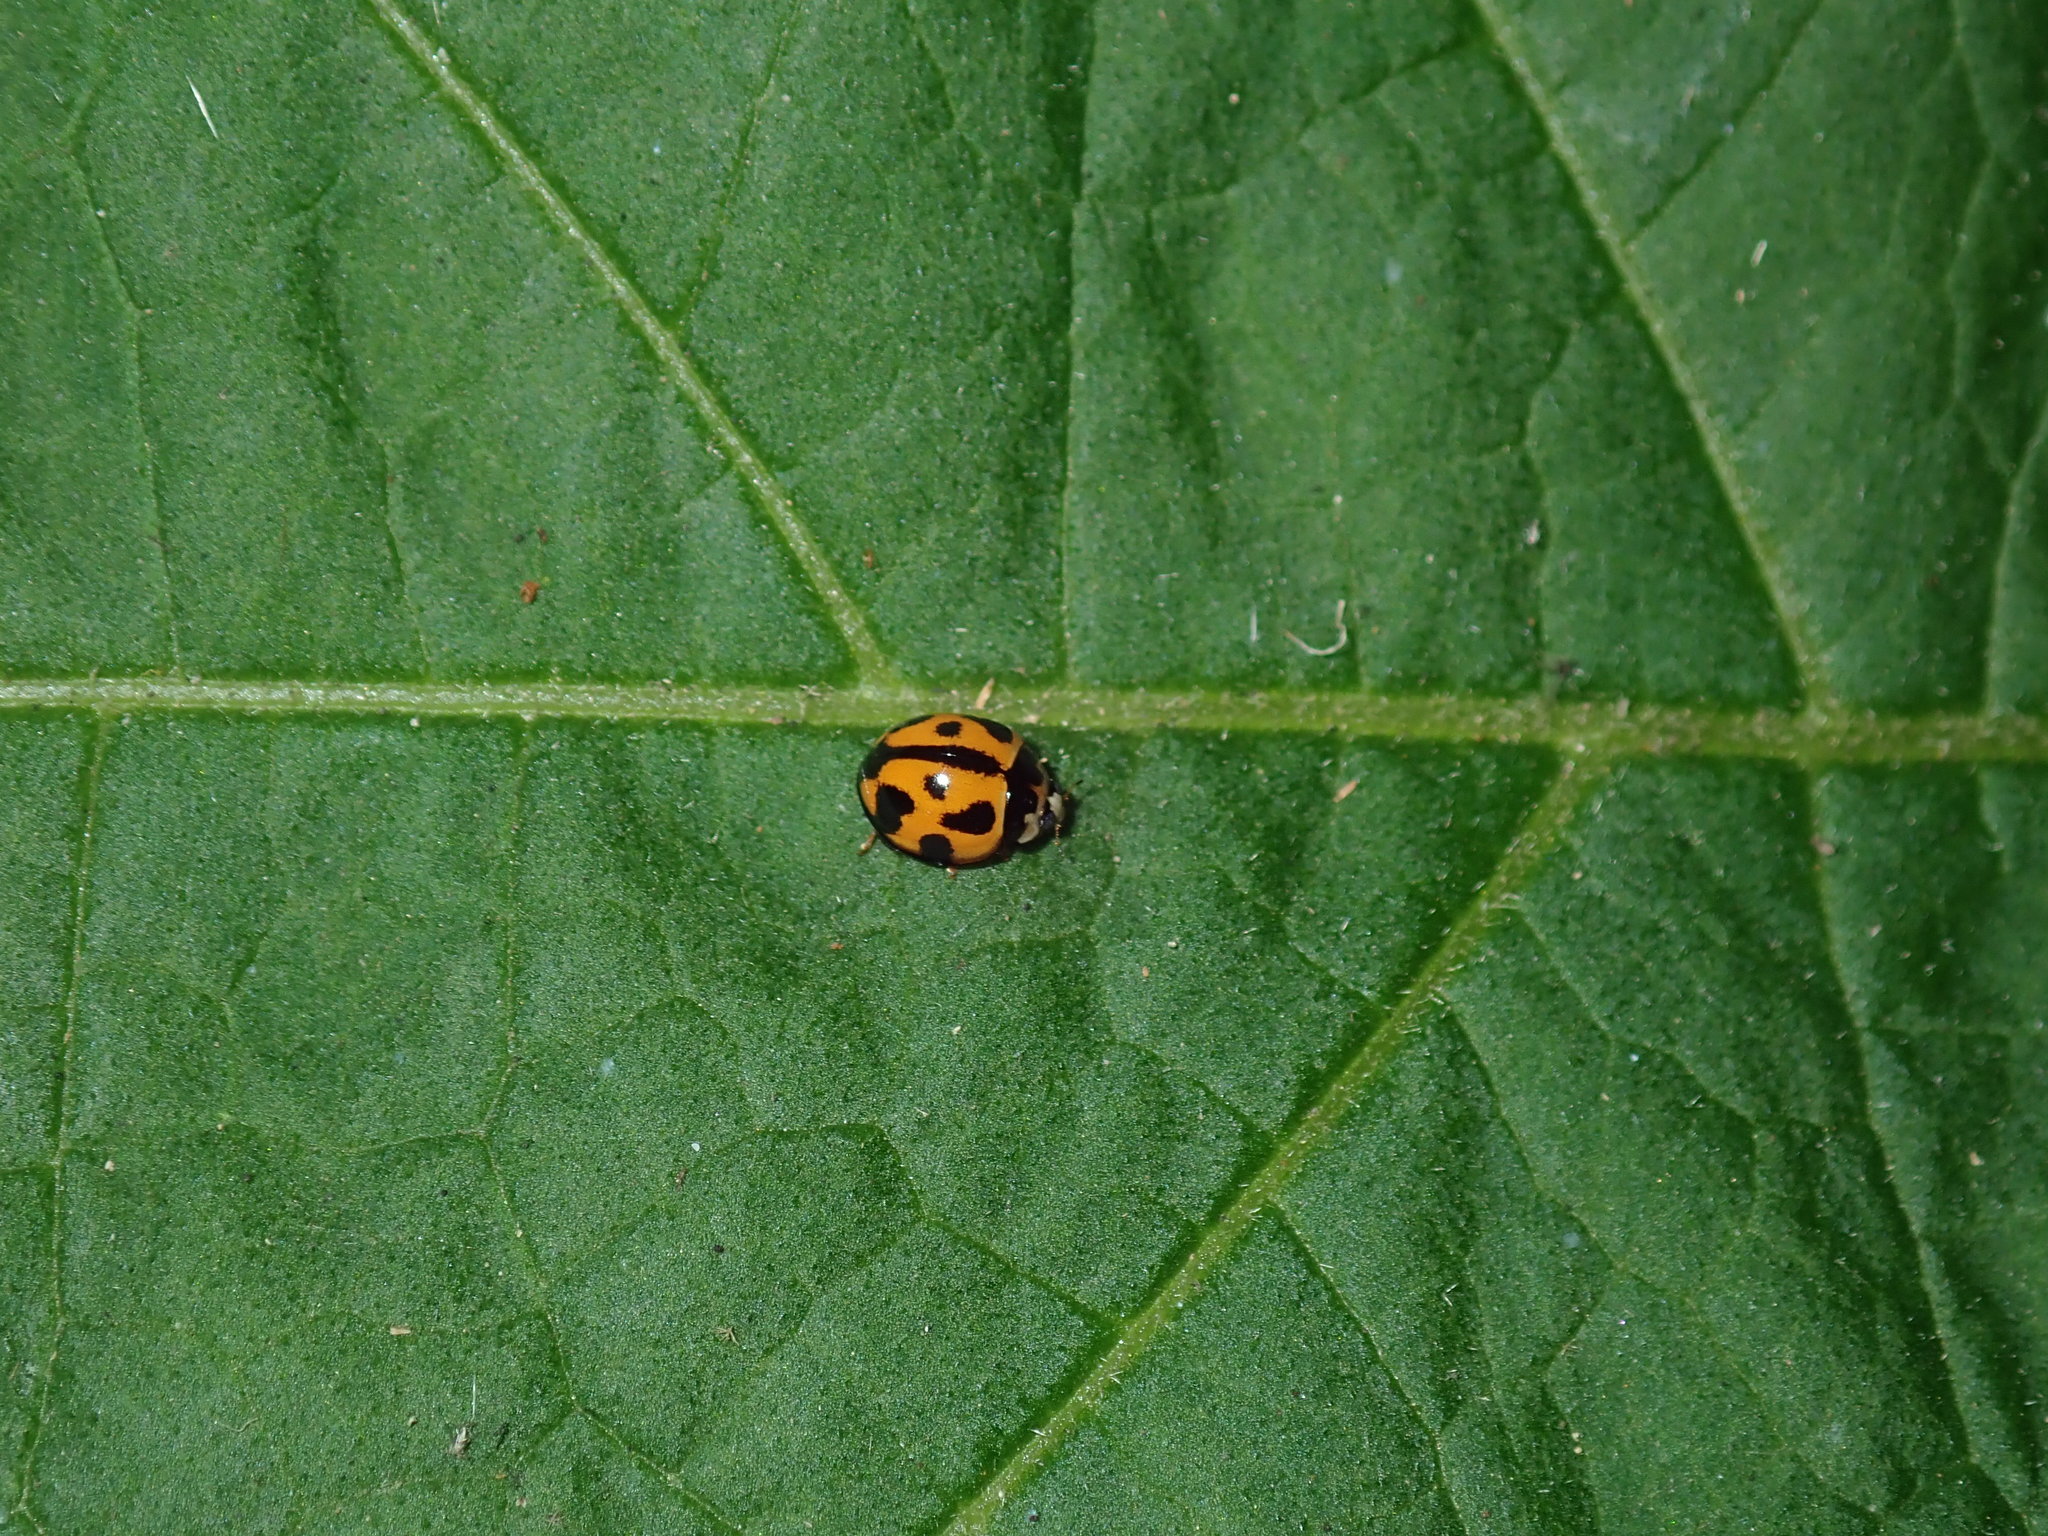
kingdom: Animalia
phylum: Arthropoda
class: Insecta
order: Coleoptera
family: Coccinellidae
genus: Coelophora
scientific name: Coelophora inaequalis
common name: Common australian lady beetle
